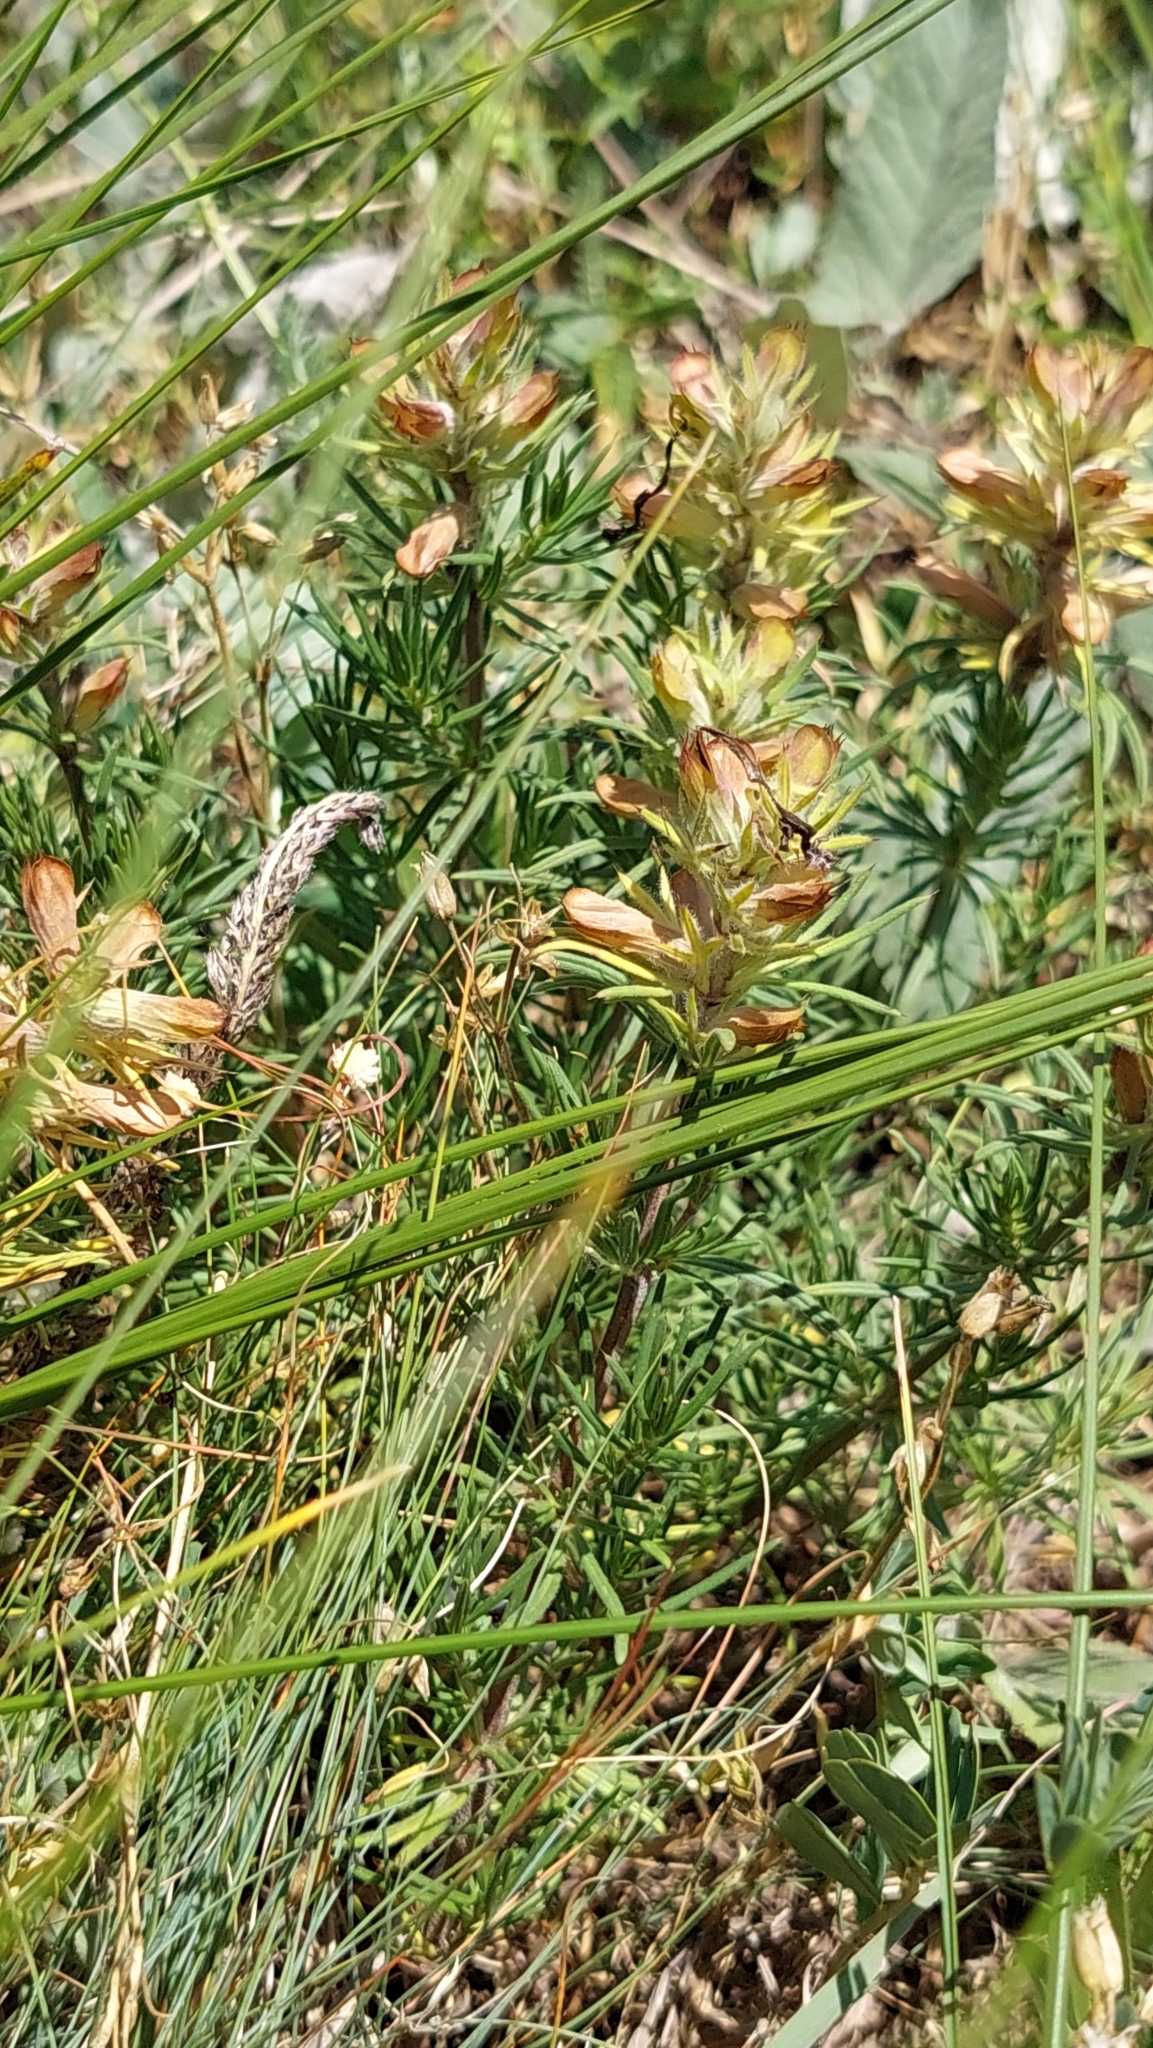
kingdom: Plantae
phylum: Tracheophyta
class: Magnoliopsida
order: Lamiales
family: Lamiaceae
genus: Dracocephalum
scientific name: Dracocephalum austriacum
